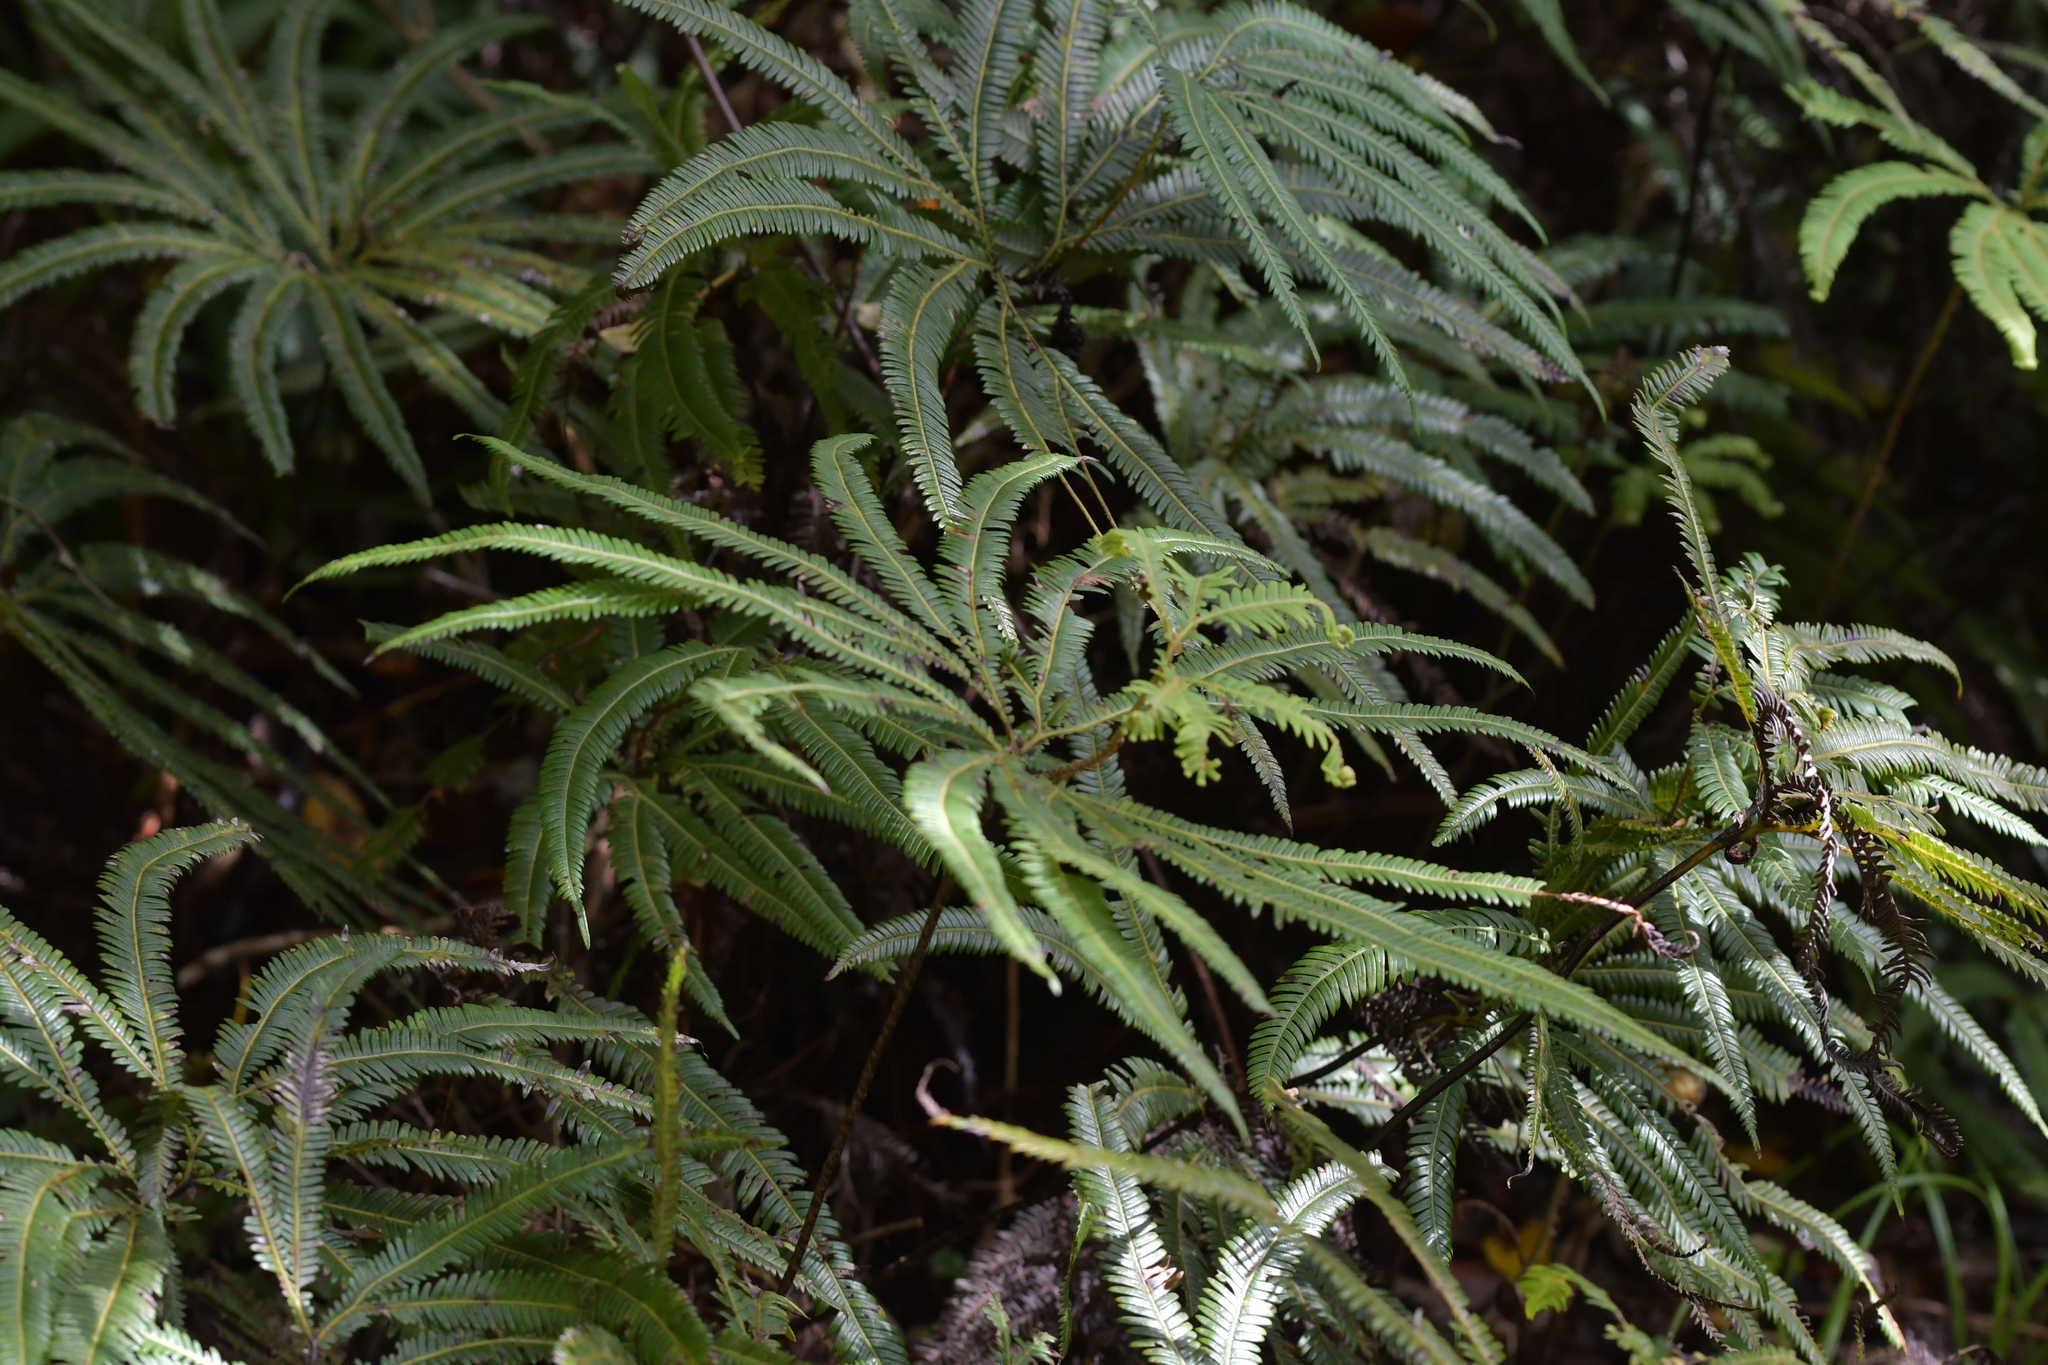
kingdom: Plantae
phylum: Tracheophyta
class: Polypodiopsida
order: Gleicheniales
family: Gleicheniaceae
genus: Sticherus
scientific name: Sticherus cunninghamii
